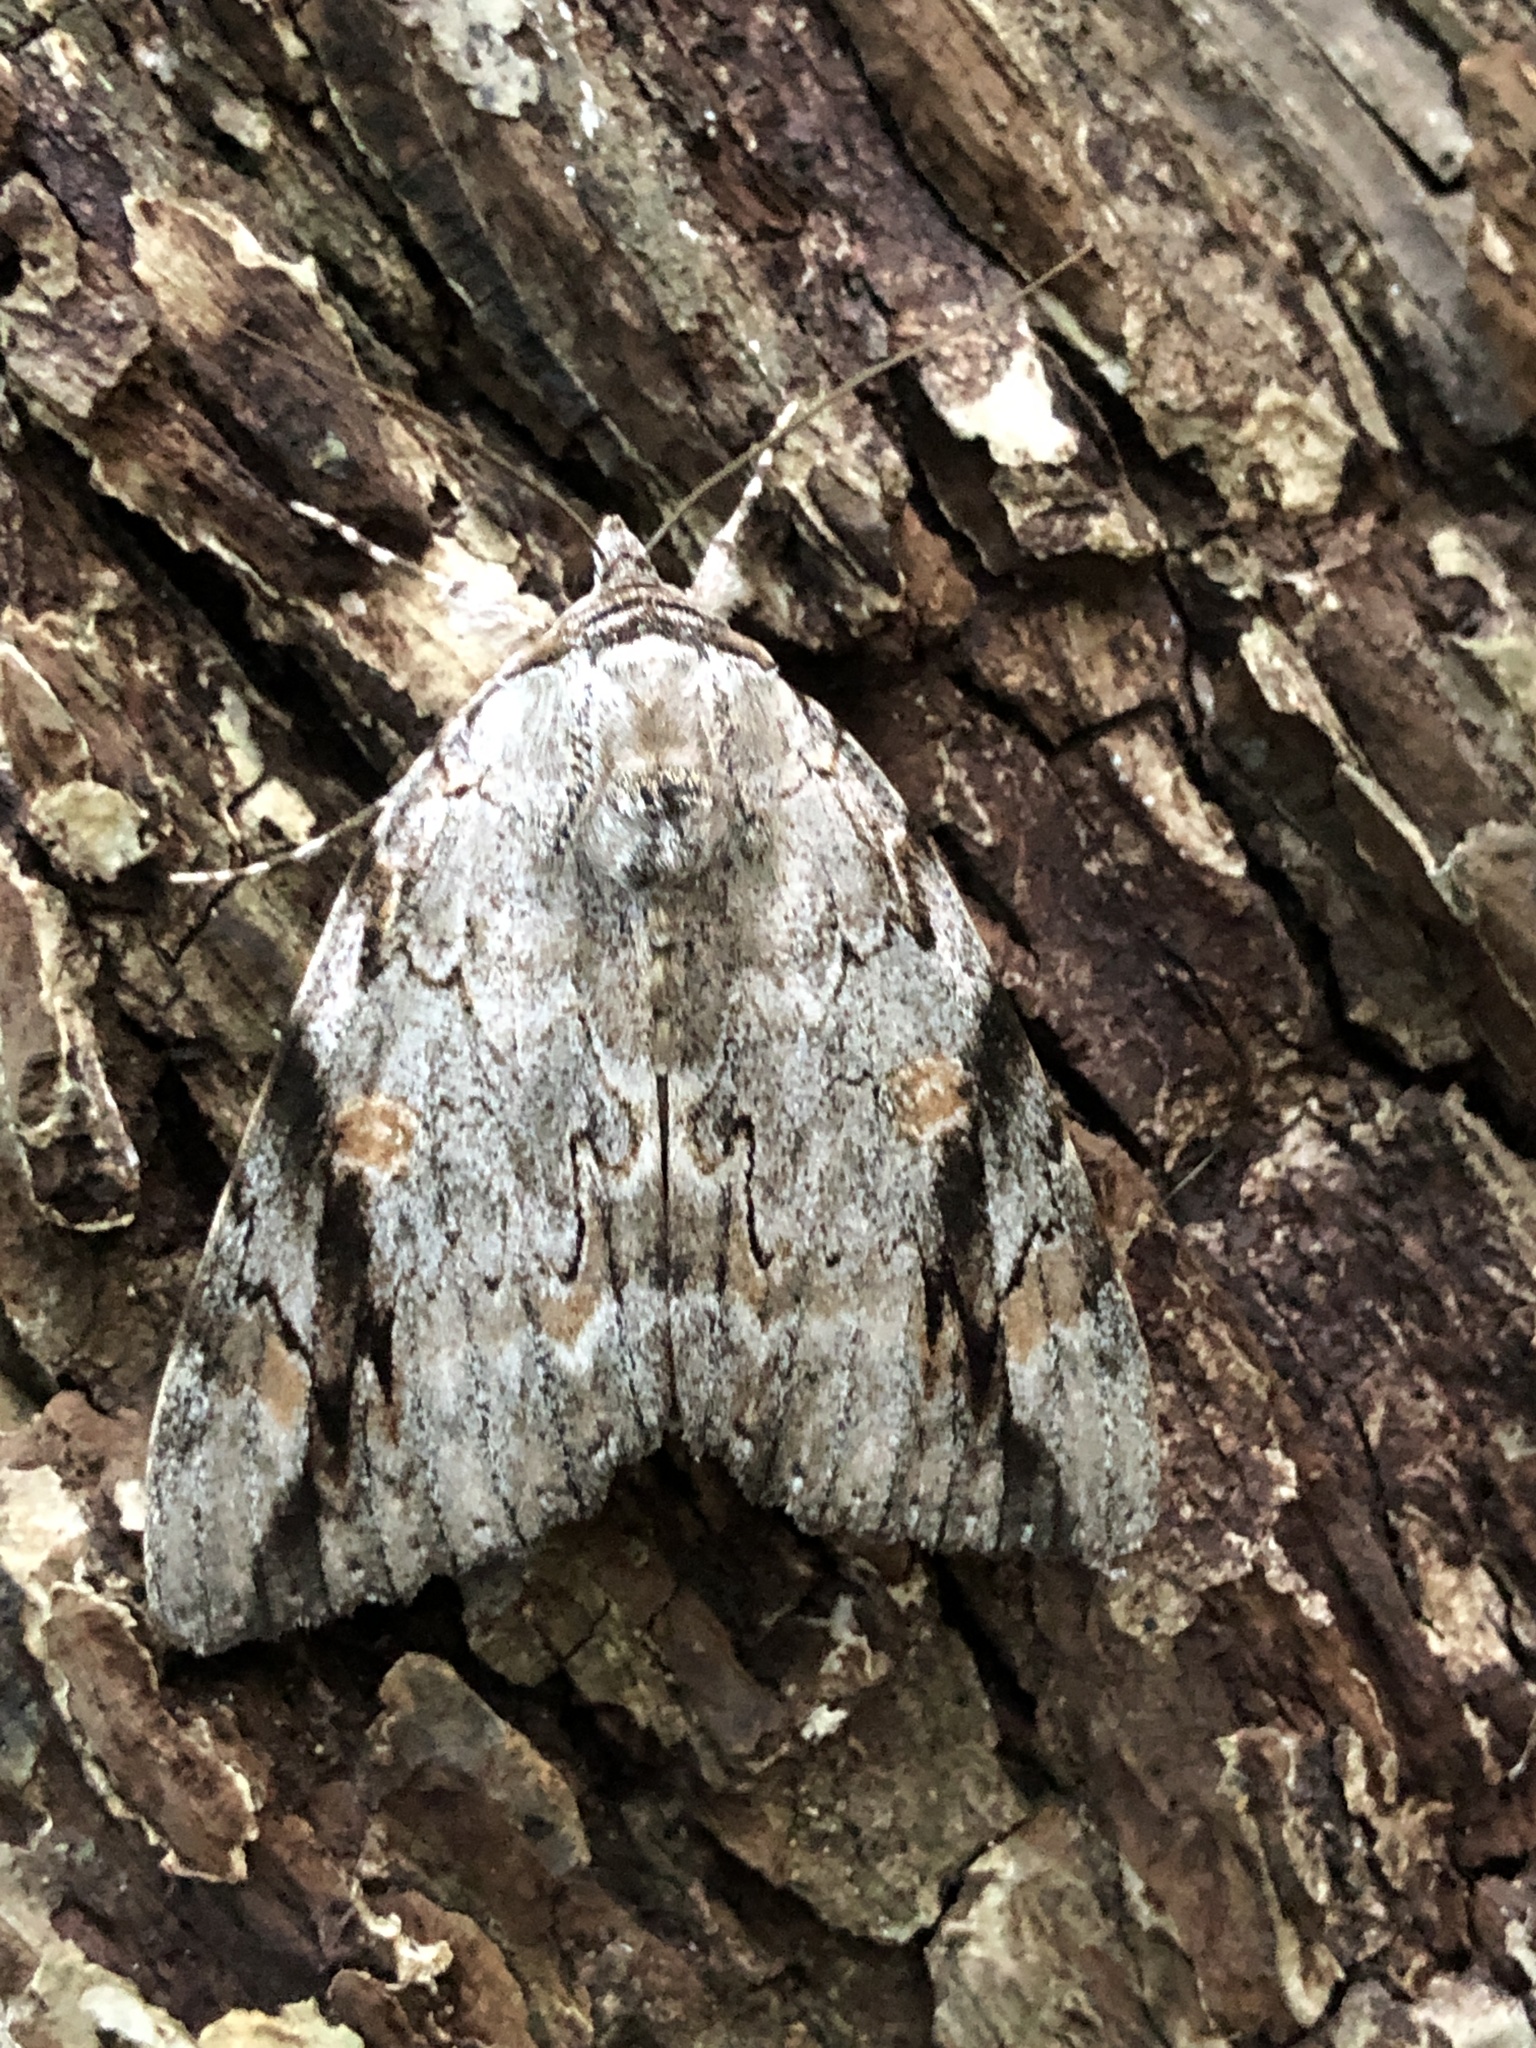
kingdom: Animalia
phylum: Arthropoda
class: Insecta
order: Lepidoptera
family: Erebidae
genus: Catocala
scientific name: Catocala maestosa
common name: Sad underwing
